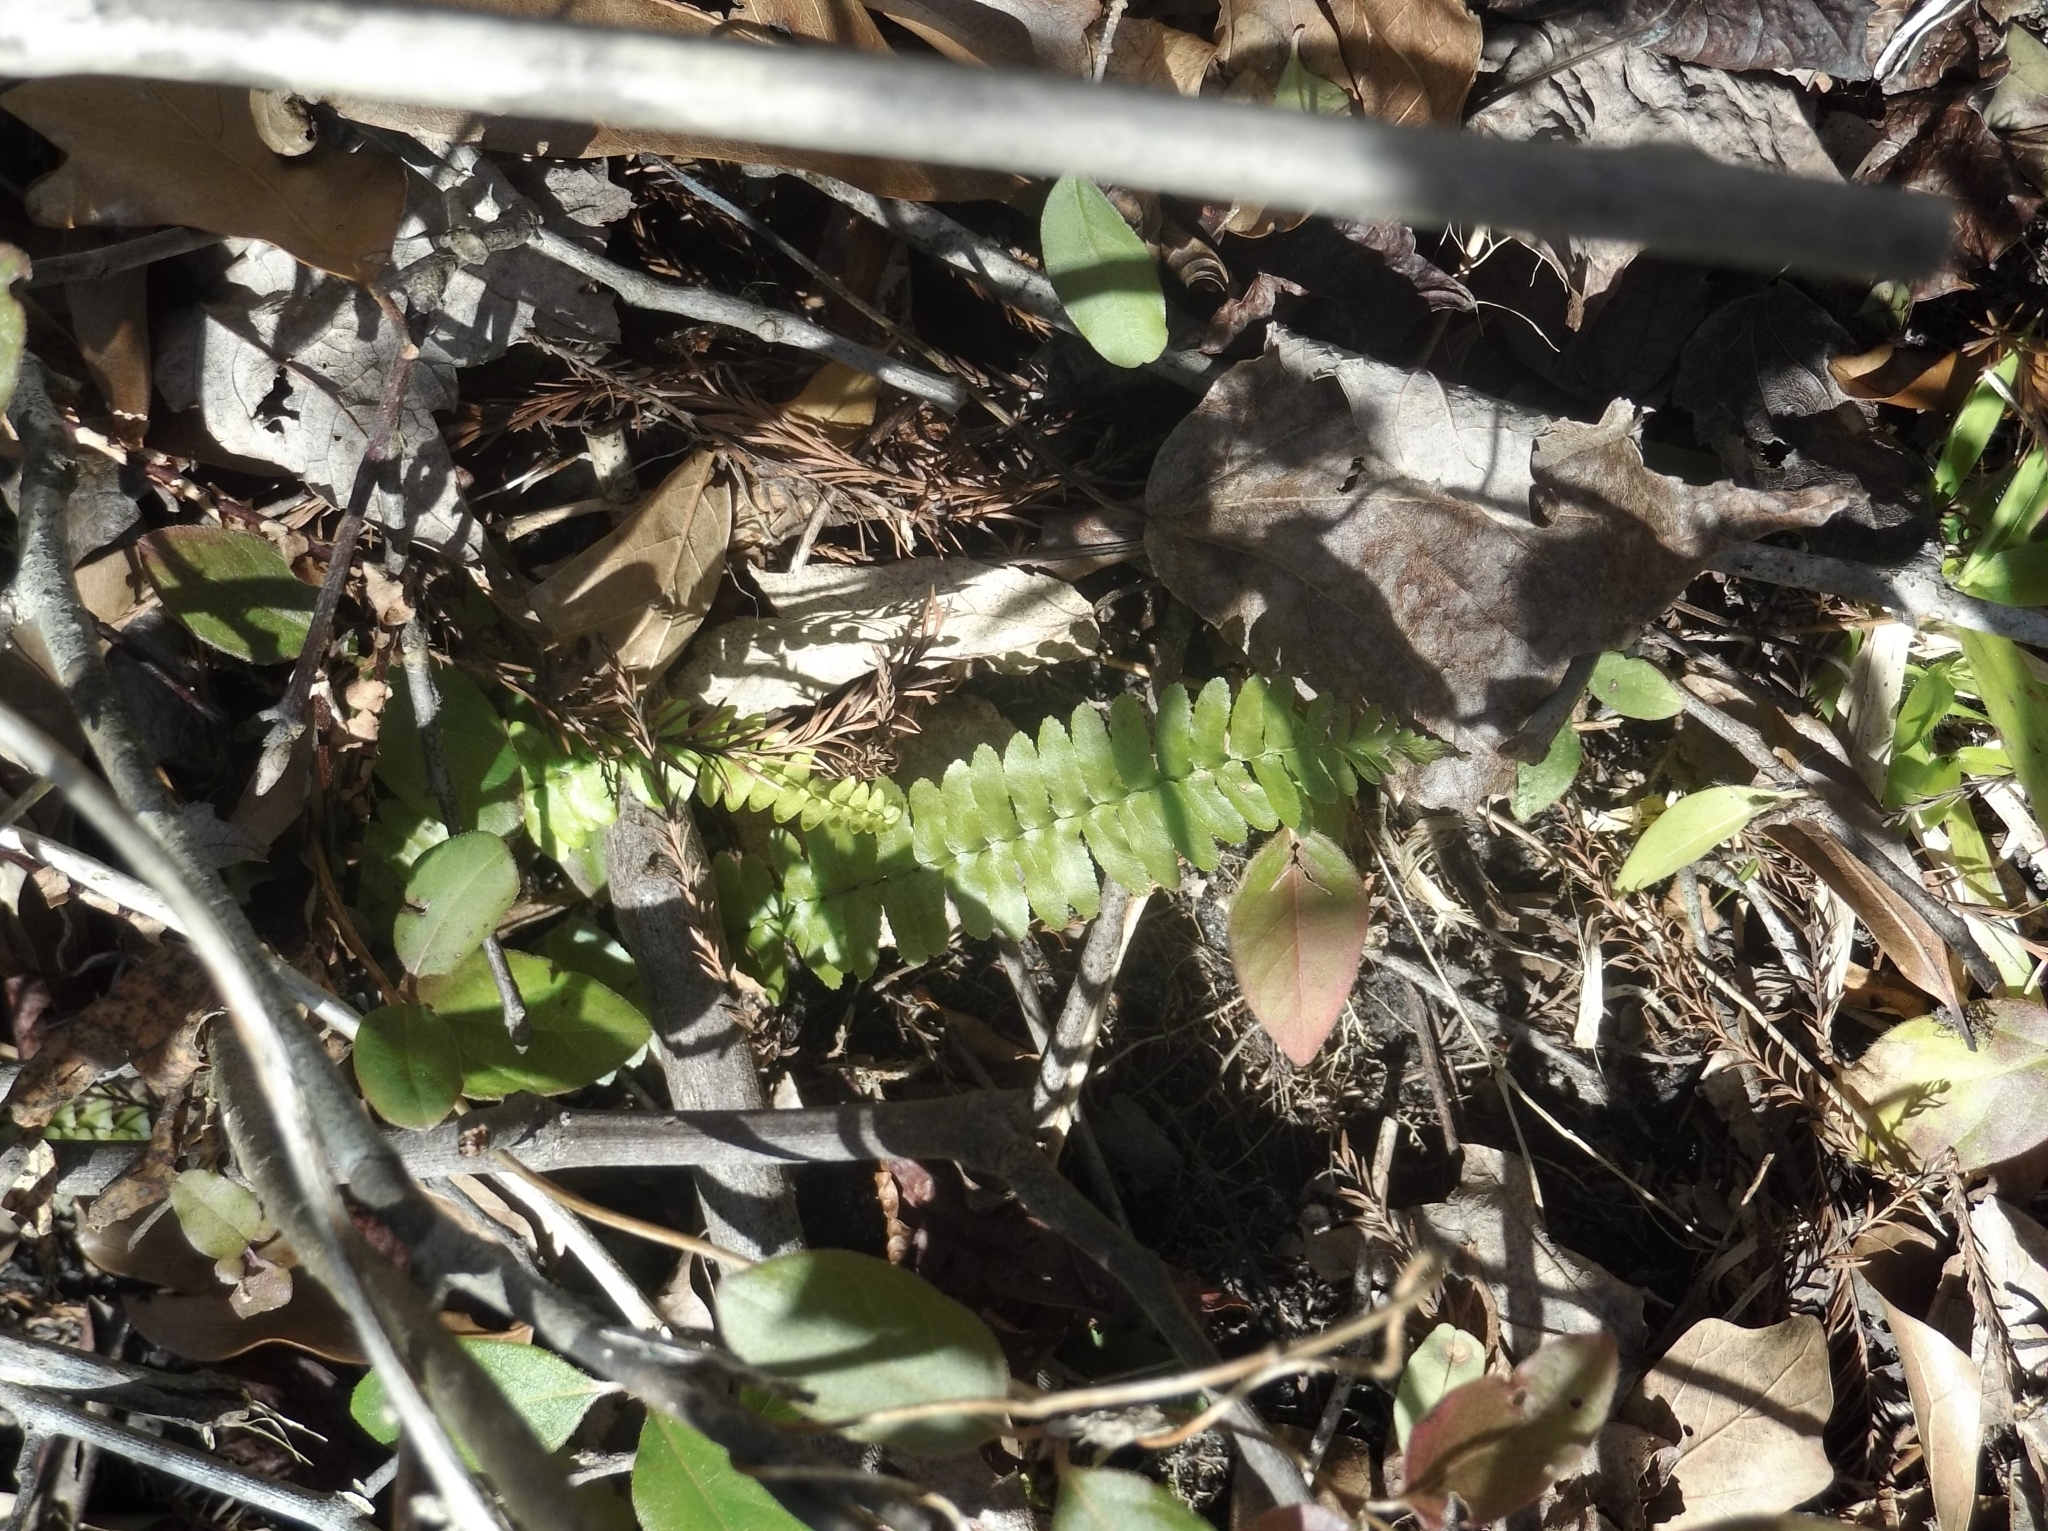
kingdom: Plantae
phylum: Tracheophyta
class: Polypodiopsida
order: Polypodiales
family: Aspleniaceae
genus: Asplenium
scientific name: Asplenium platyneuron
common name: Ebony spleenwort
